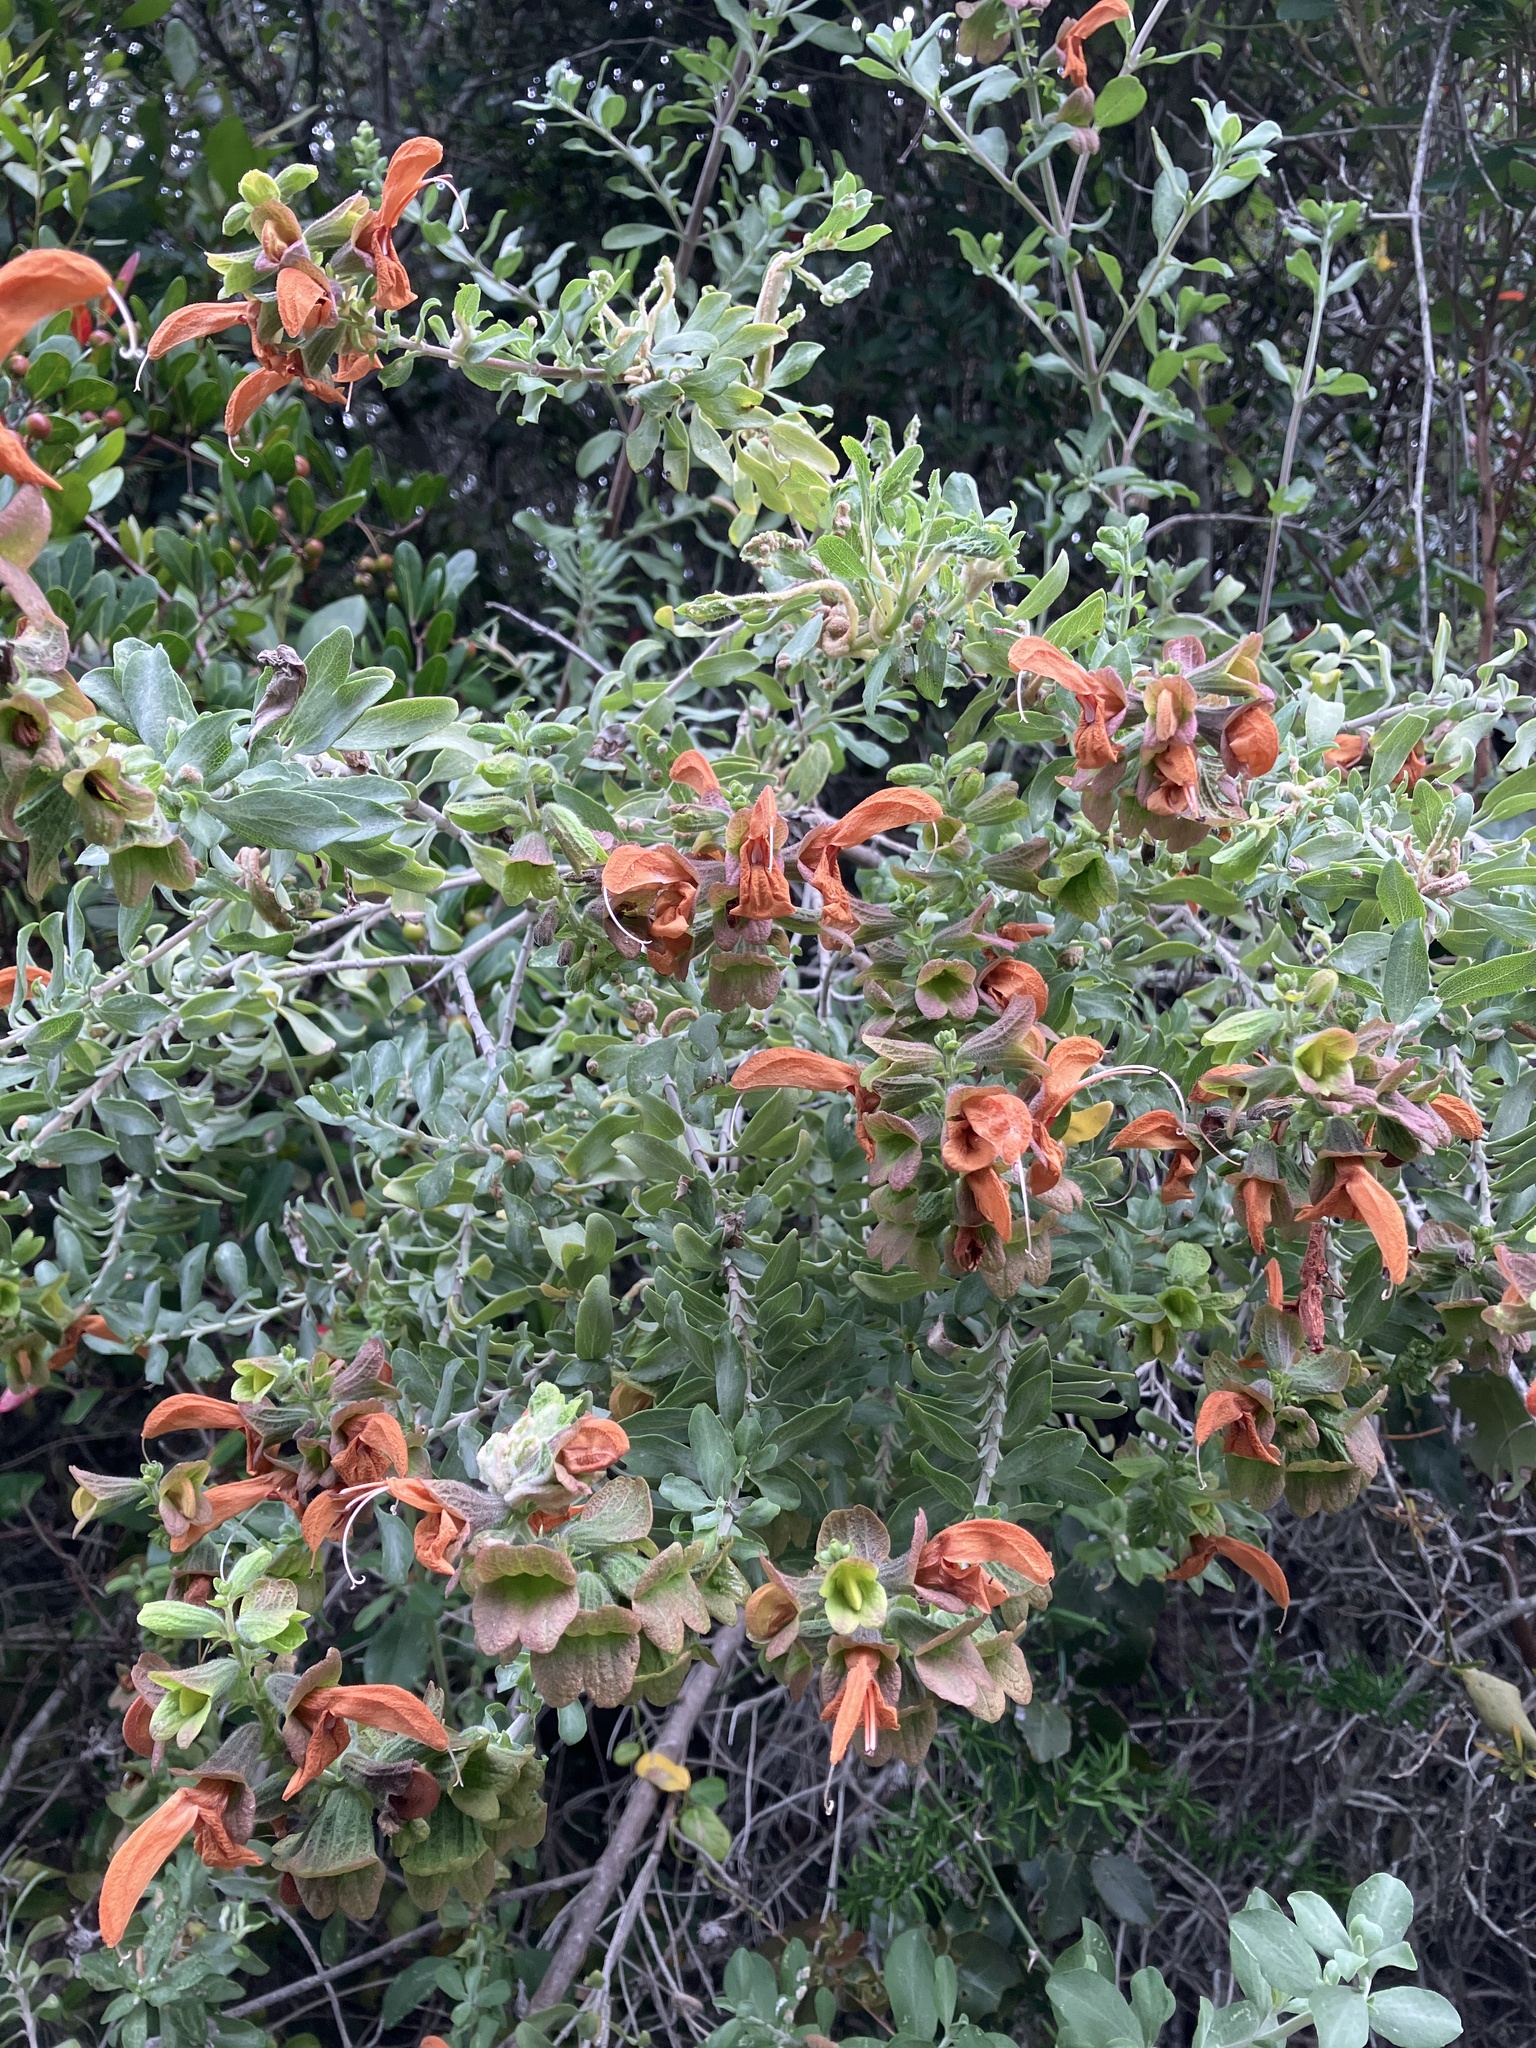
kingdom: Plantae
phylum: Tracheophyta
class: Magnoliopsida
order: Lamiales
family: Lamiaceae
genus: Salvia
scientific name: Salvia aurea
